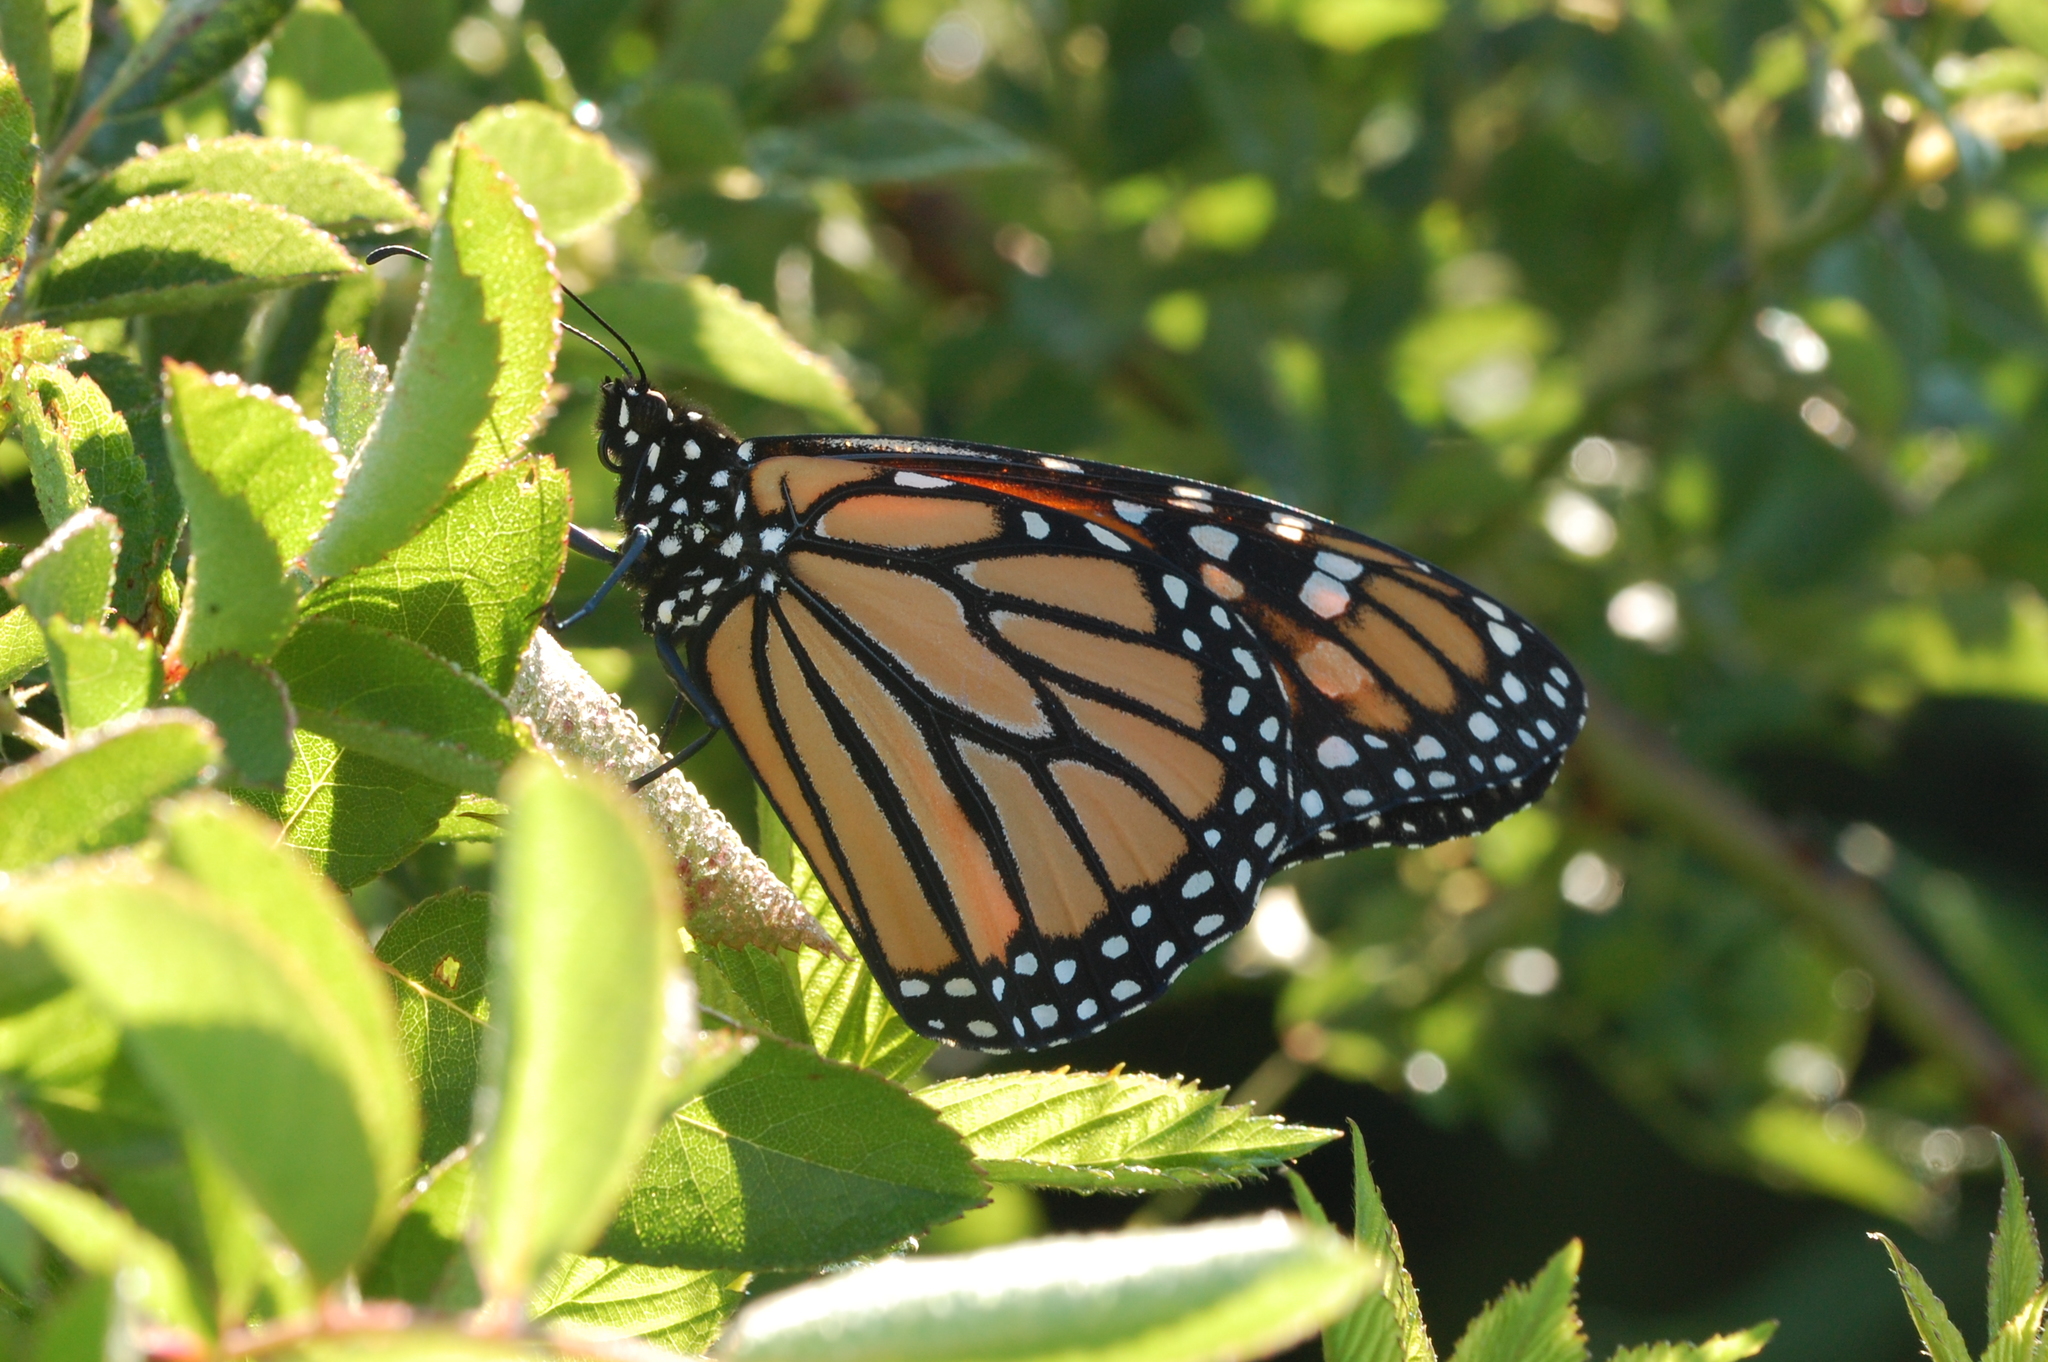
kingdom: Animalia
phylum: Arthropoda
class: Insecta
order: Lepidoptera
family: Nymphalidae
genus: Danaus
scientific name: Danaus plexippus
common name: Monarch
